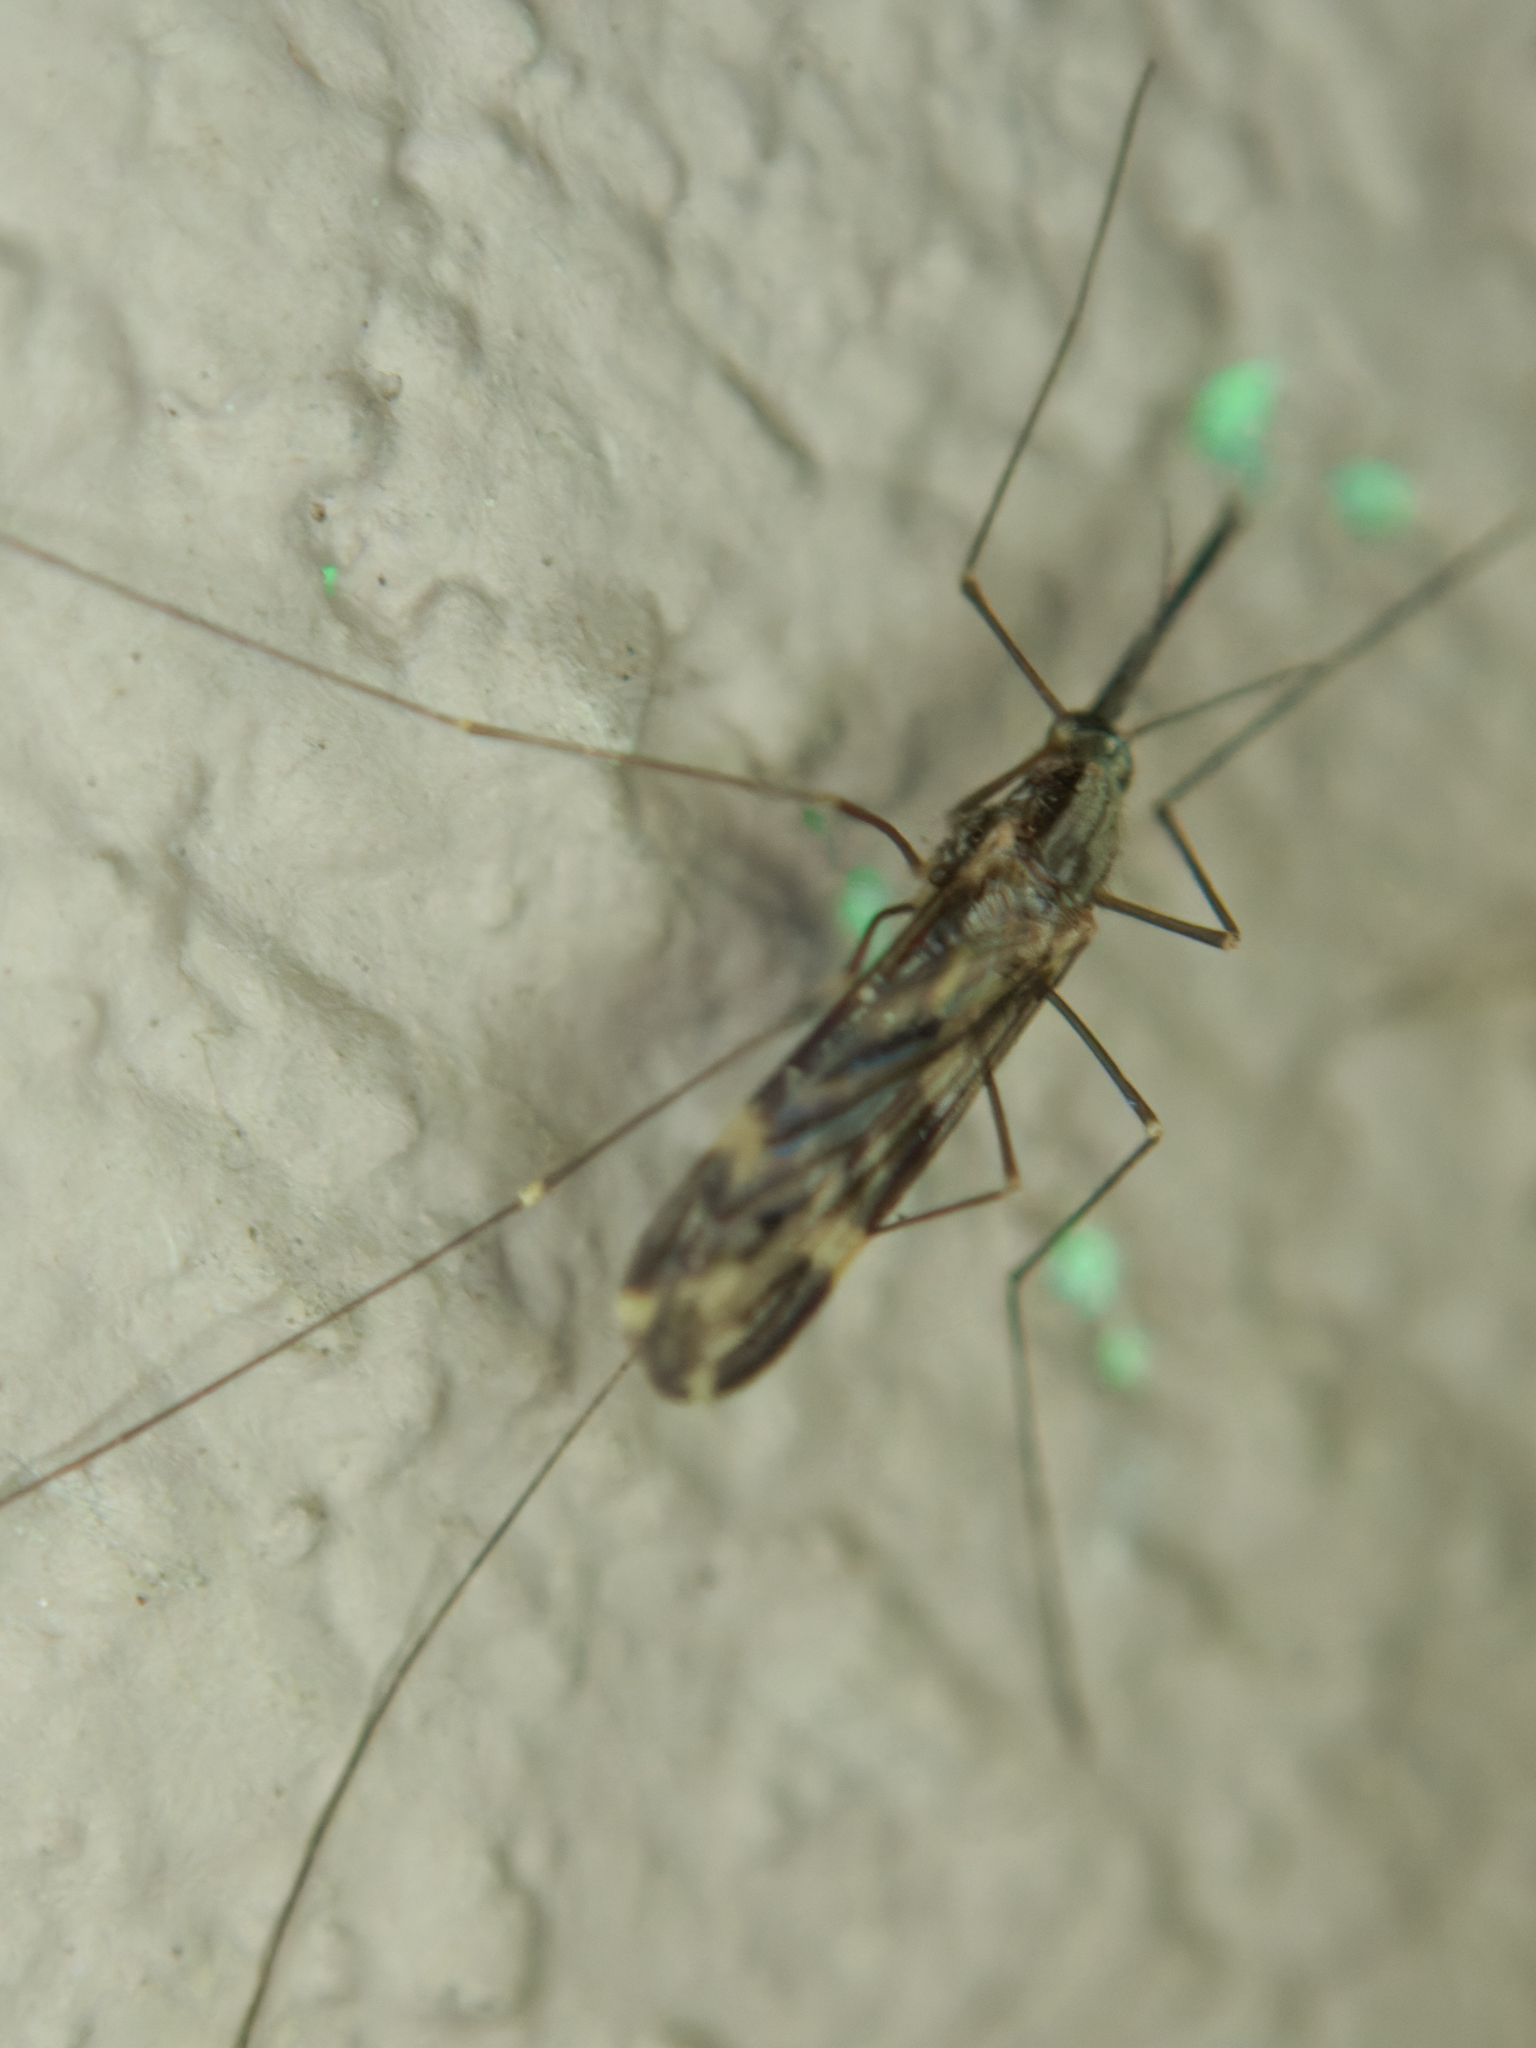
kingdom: Animalia
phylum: Arthropoda
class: Insecta
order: Diptera
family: Culicidae
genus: Anopheles
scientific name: Anopheles punctipennis
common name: Woodland malaria mosquito
